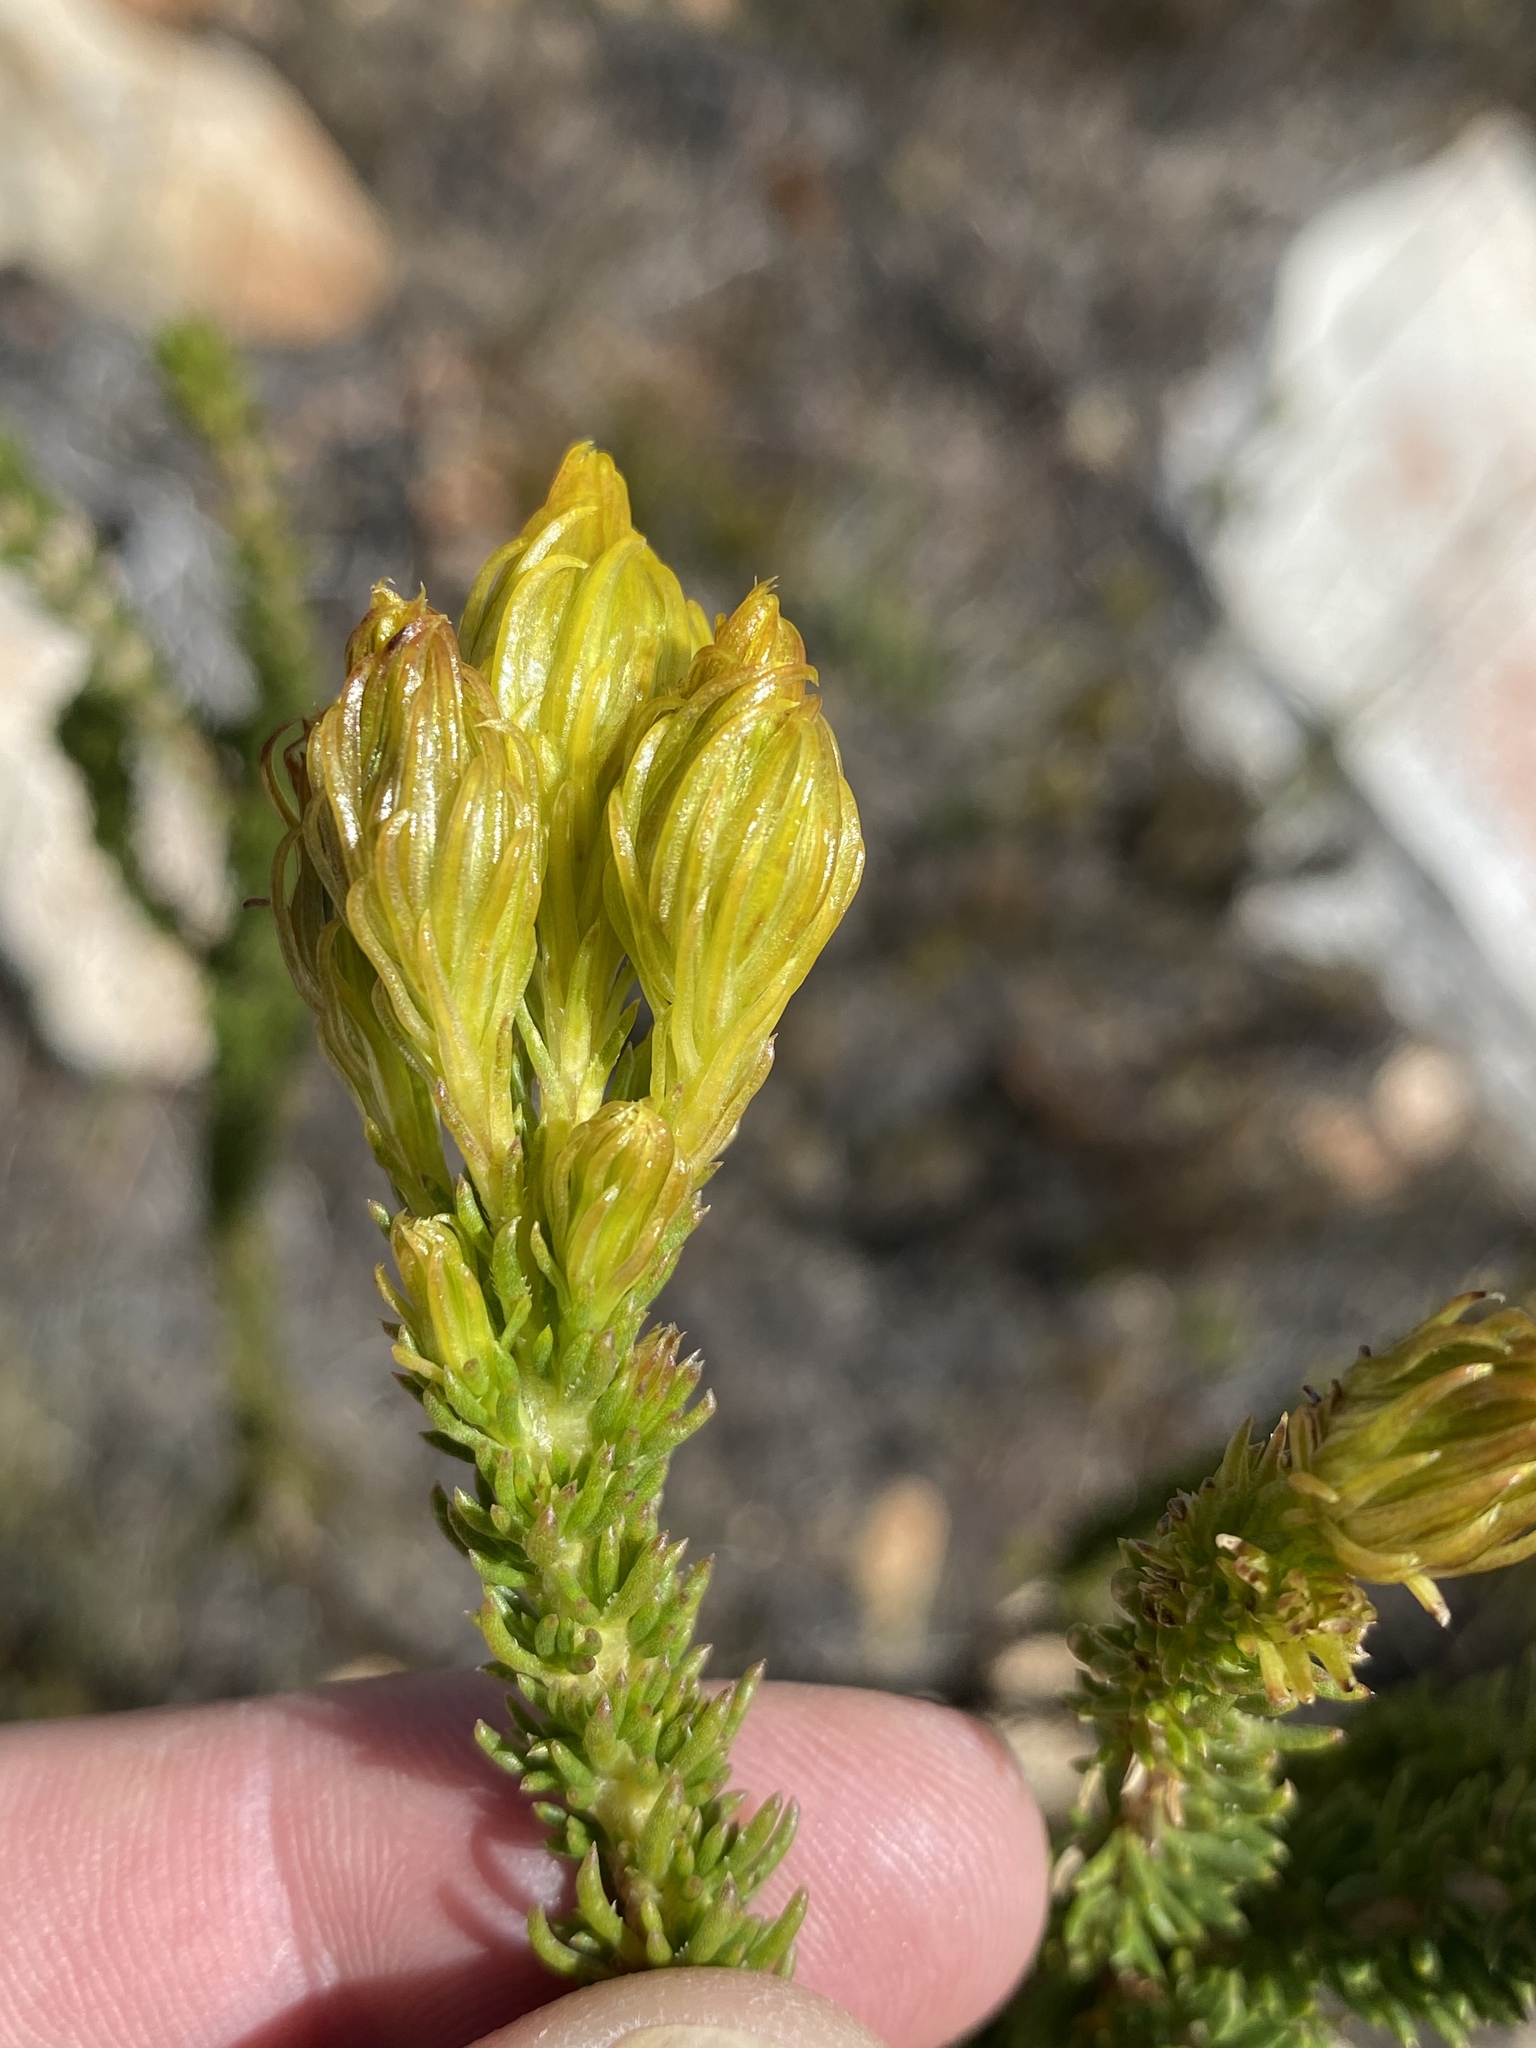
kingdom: Plantae
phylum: Tracheophyta
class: Magnoliopsida
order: Asterales
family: Asteraceae
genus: Pteronia
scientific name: Pteronia camphorata
